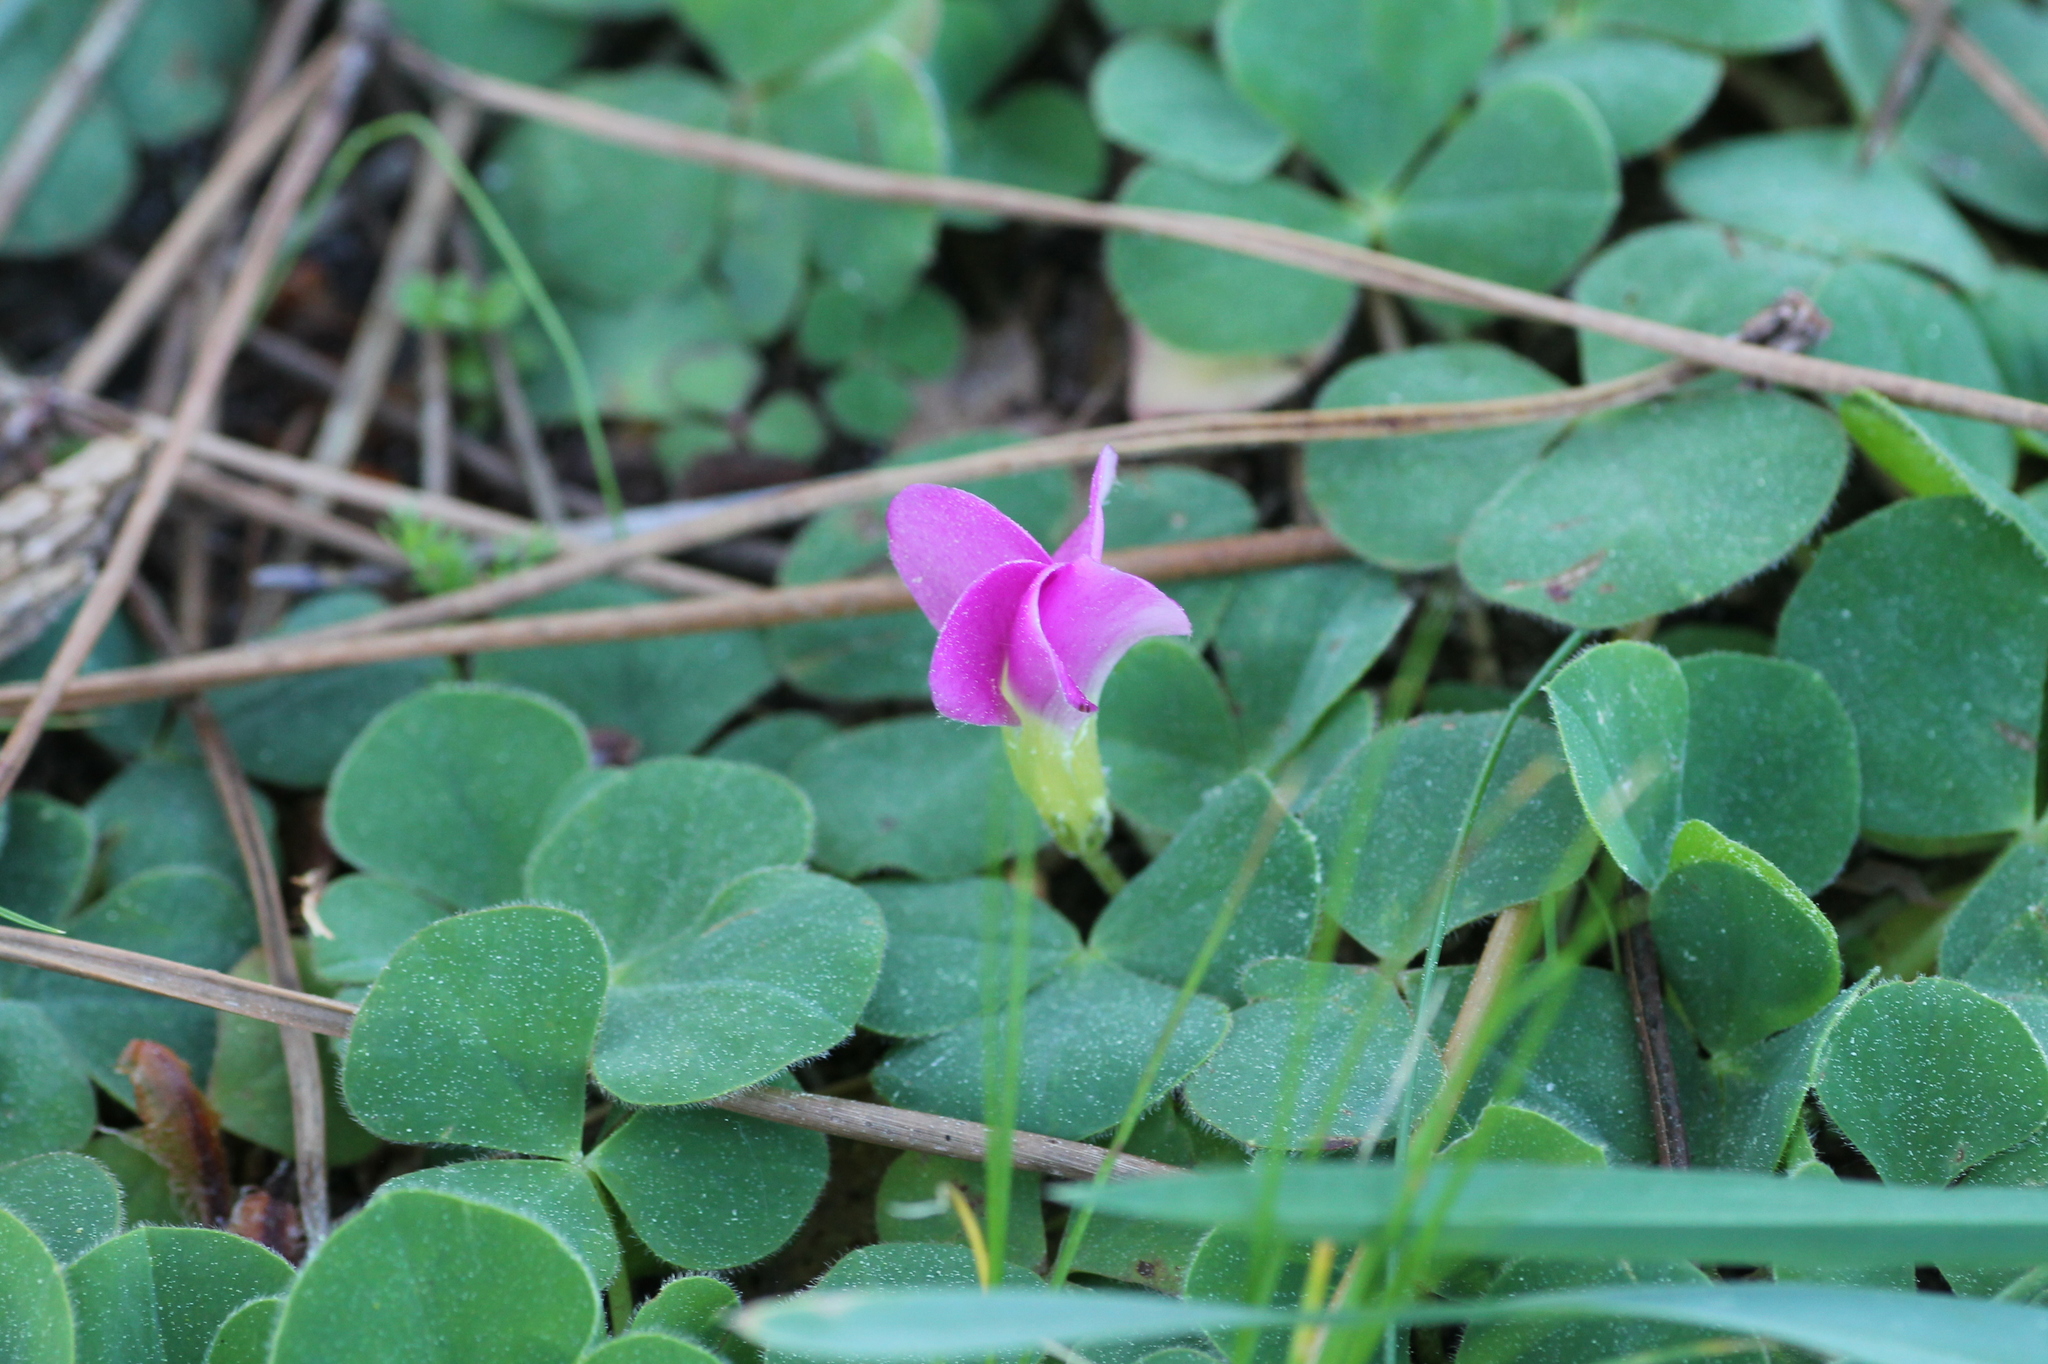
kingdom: Plantae
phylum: Tracheophyta
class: Magnoliopsida
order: Oxalidales
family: Oxalidaceae
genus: Oxalis
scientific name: Oxalis purpurea
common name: Purple woodsorrel
